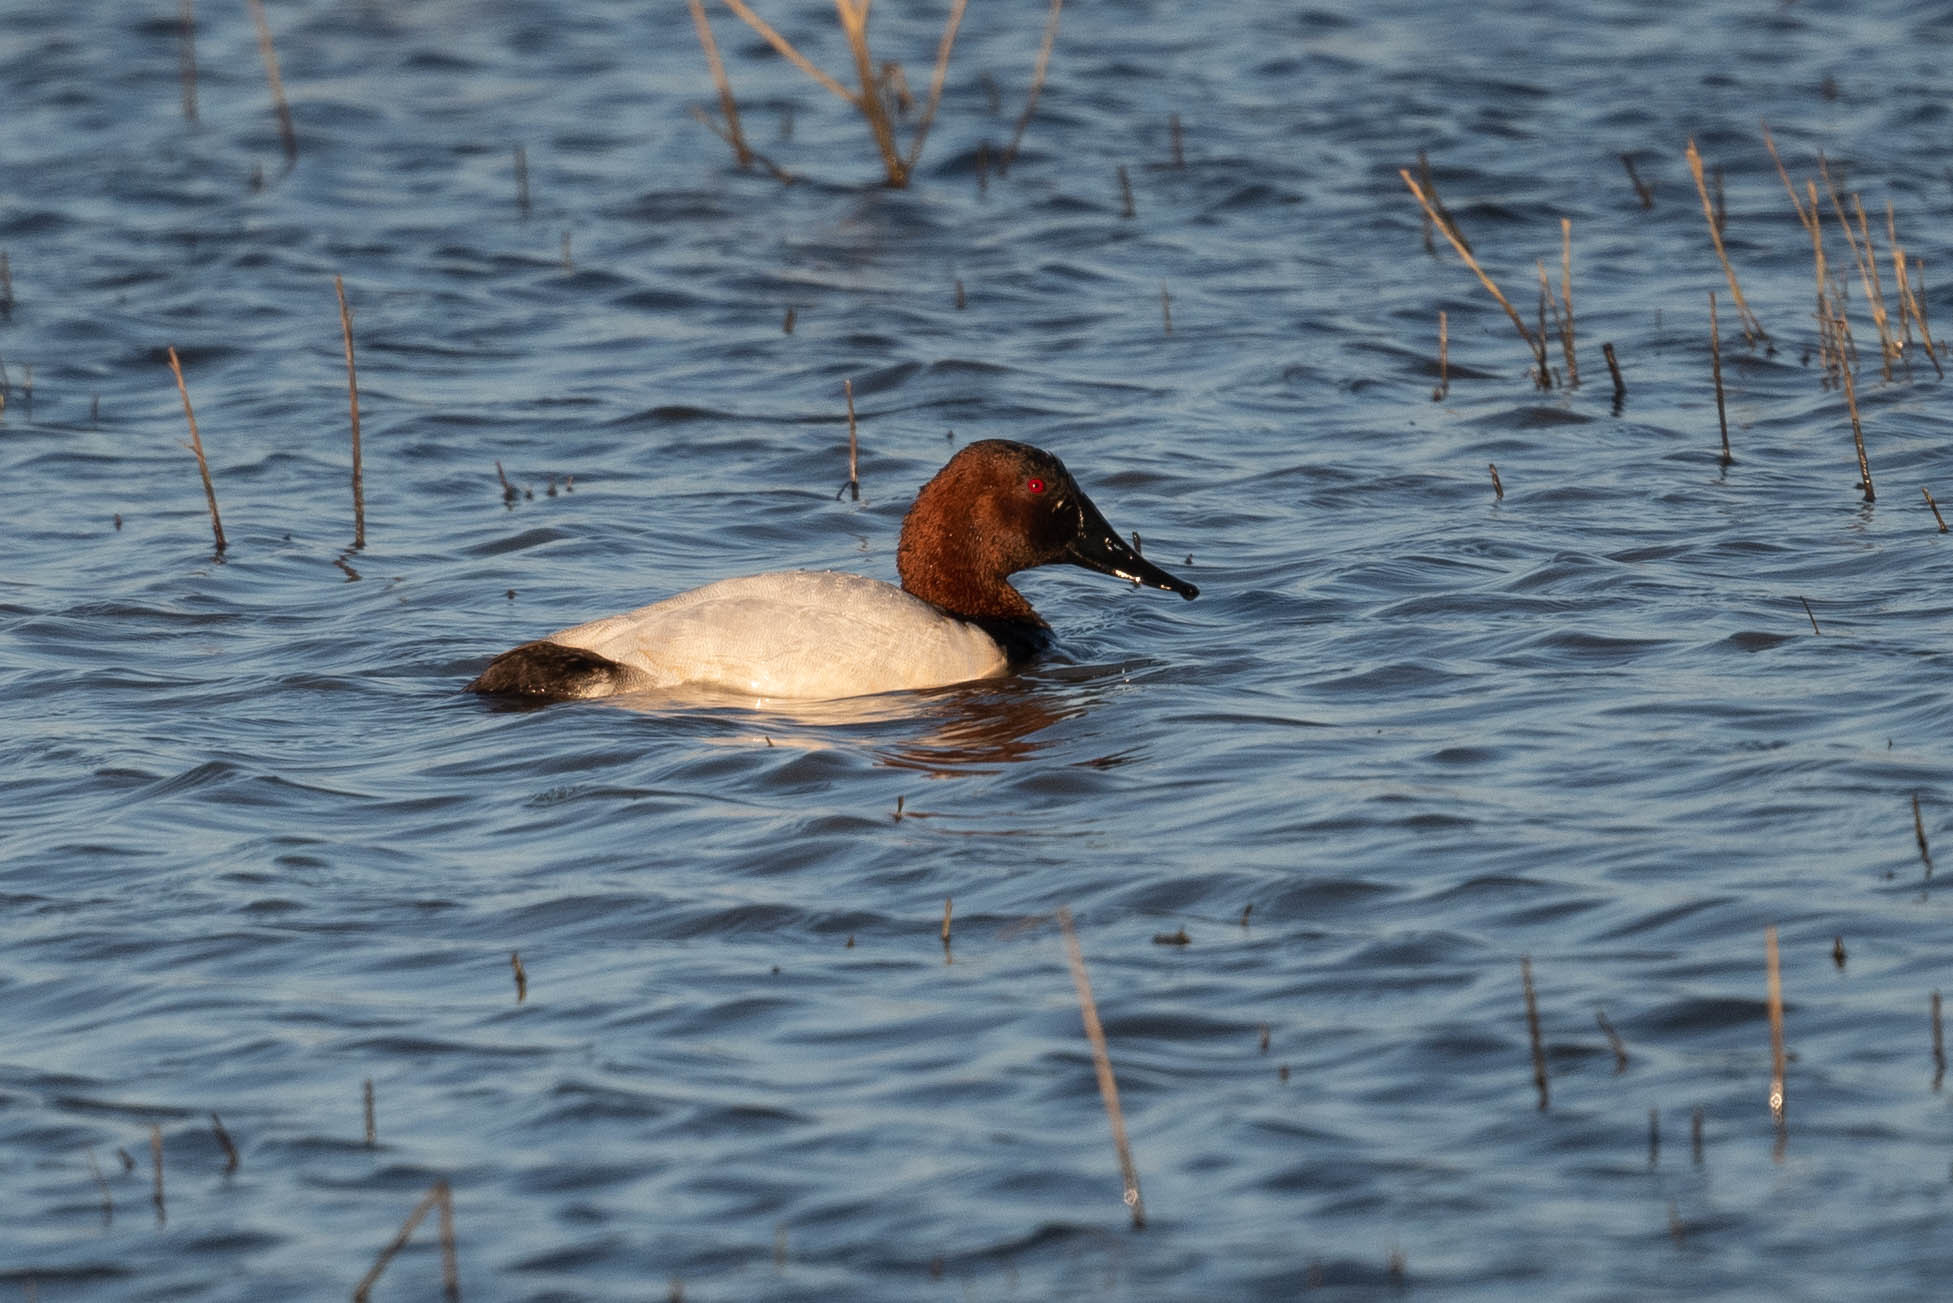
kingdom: Animalia
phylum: Chordata
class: Aves
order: Anseriformes
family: Anatidae
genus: Aythya
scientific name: Aythya valisineria
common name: Canvasback
